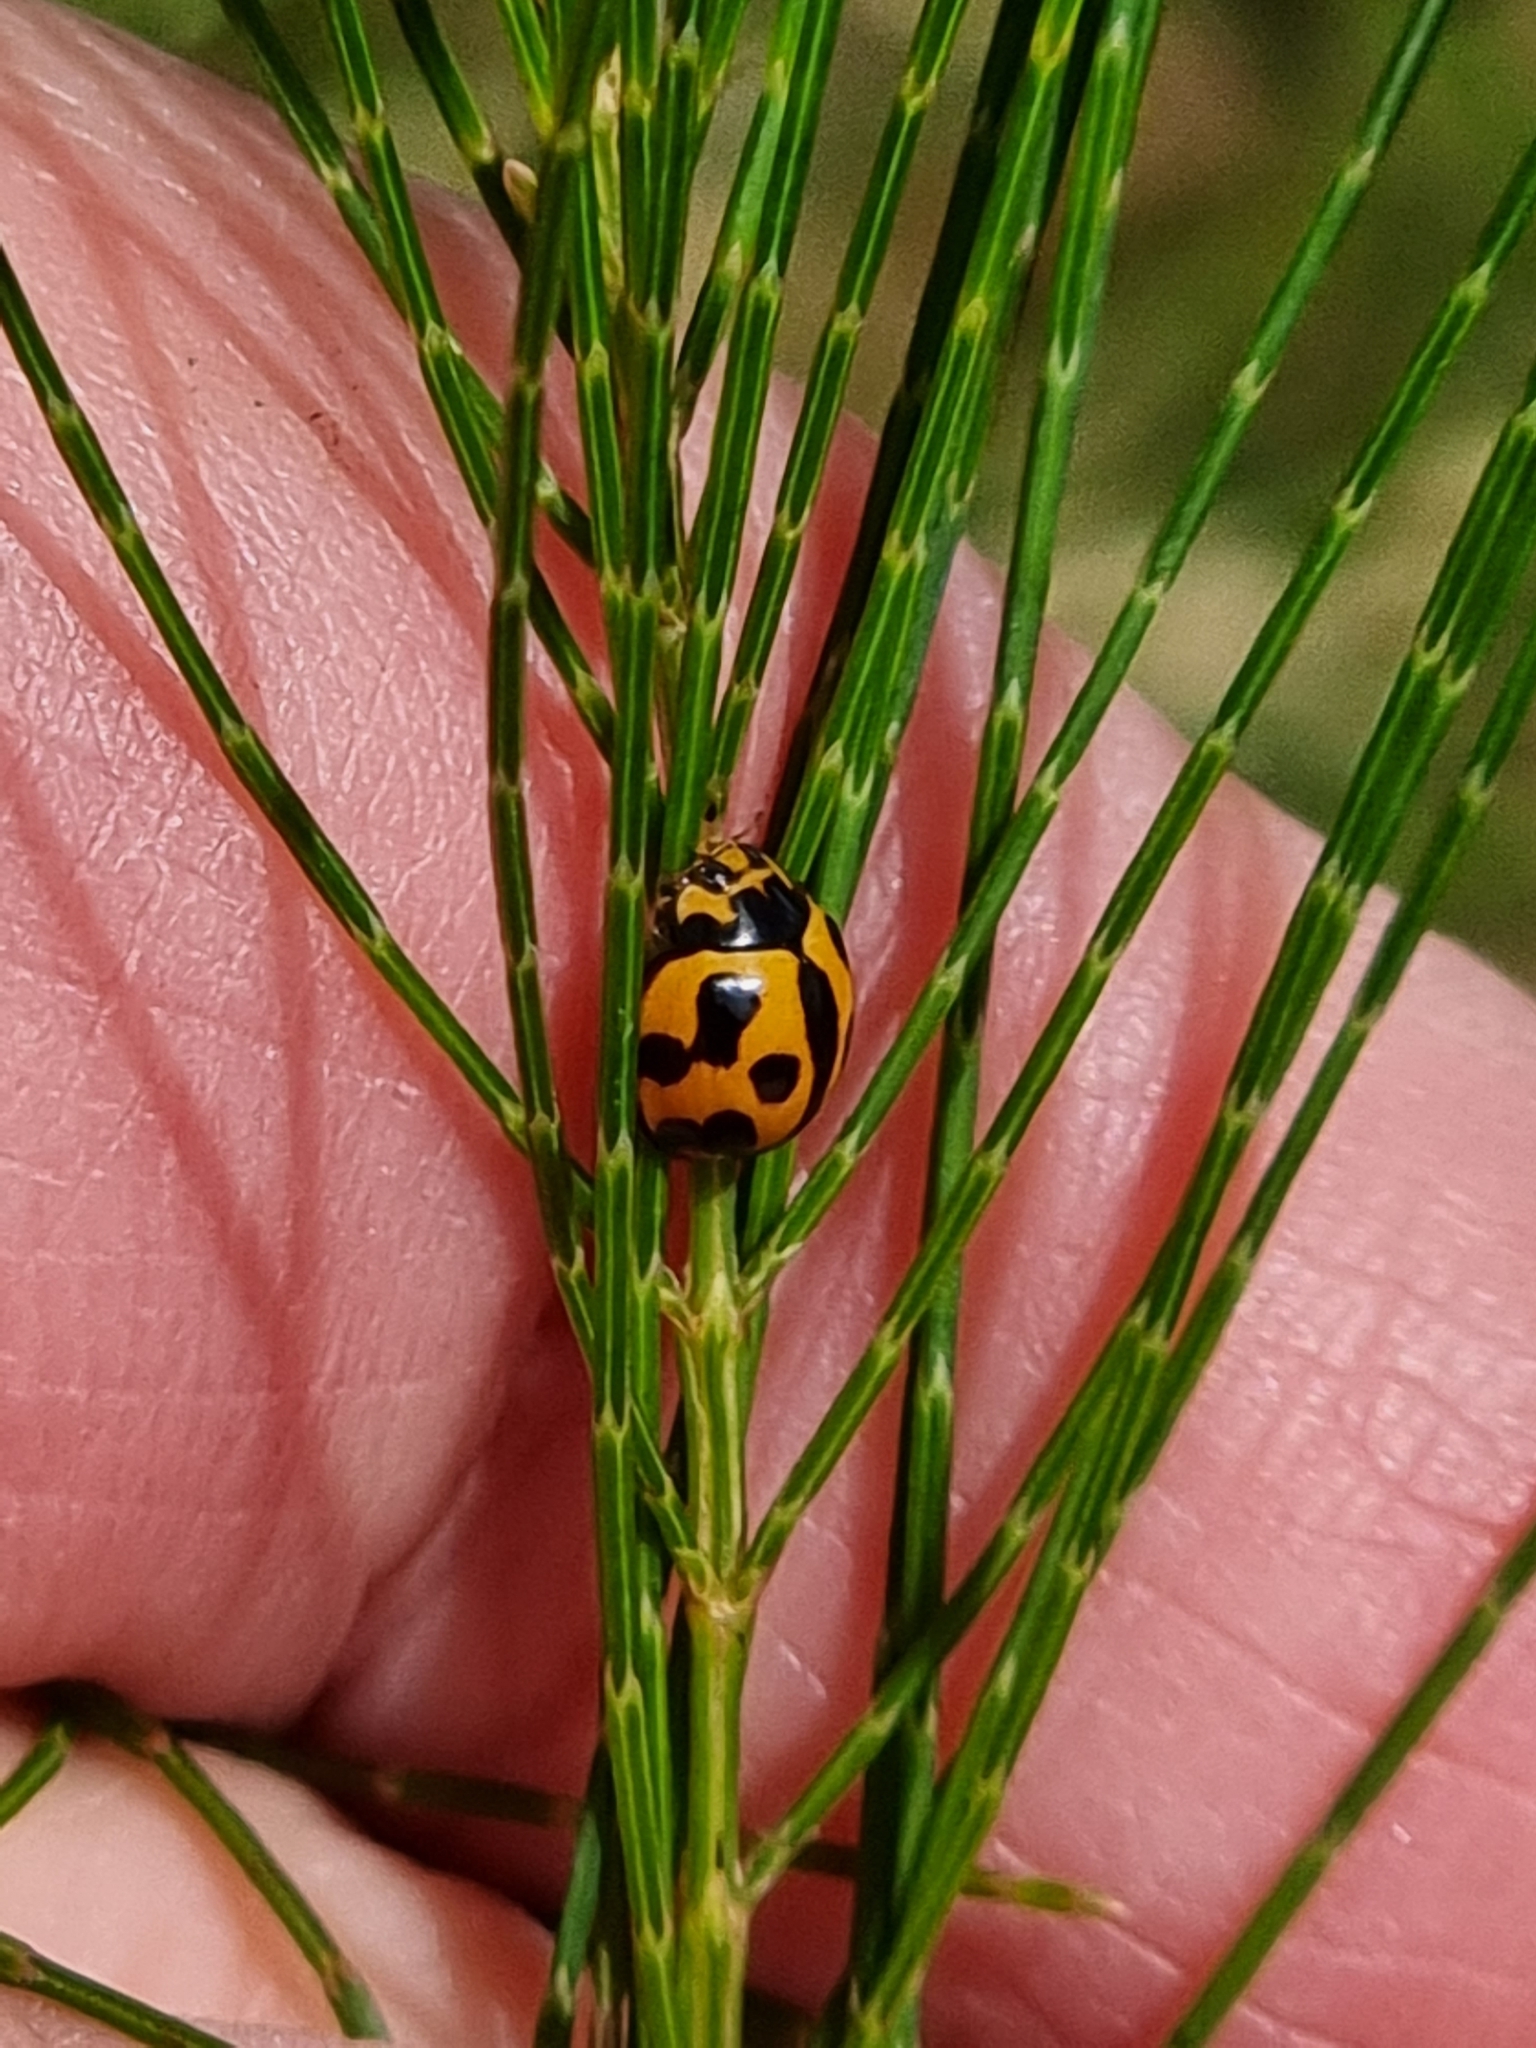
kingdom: Animalia
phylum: Arthropoda
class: Insecta
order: Coleoptera
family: Coccinellidae
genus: Coelophora
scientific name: Coelophora inaequalis
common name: Common australian lady beetle
